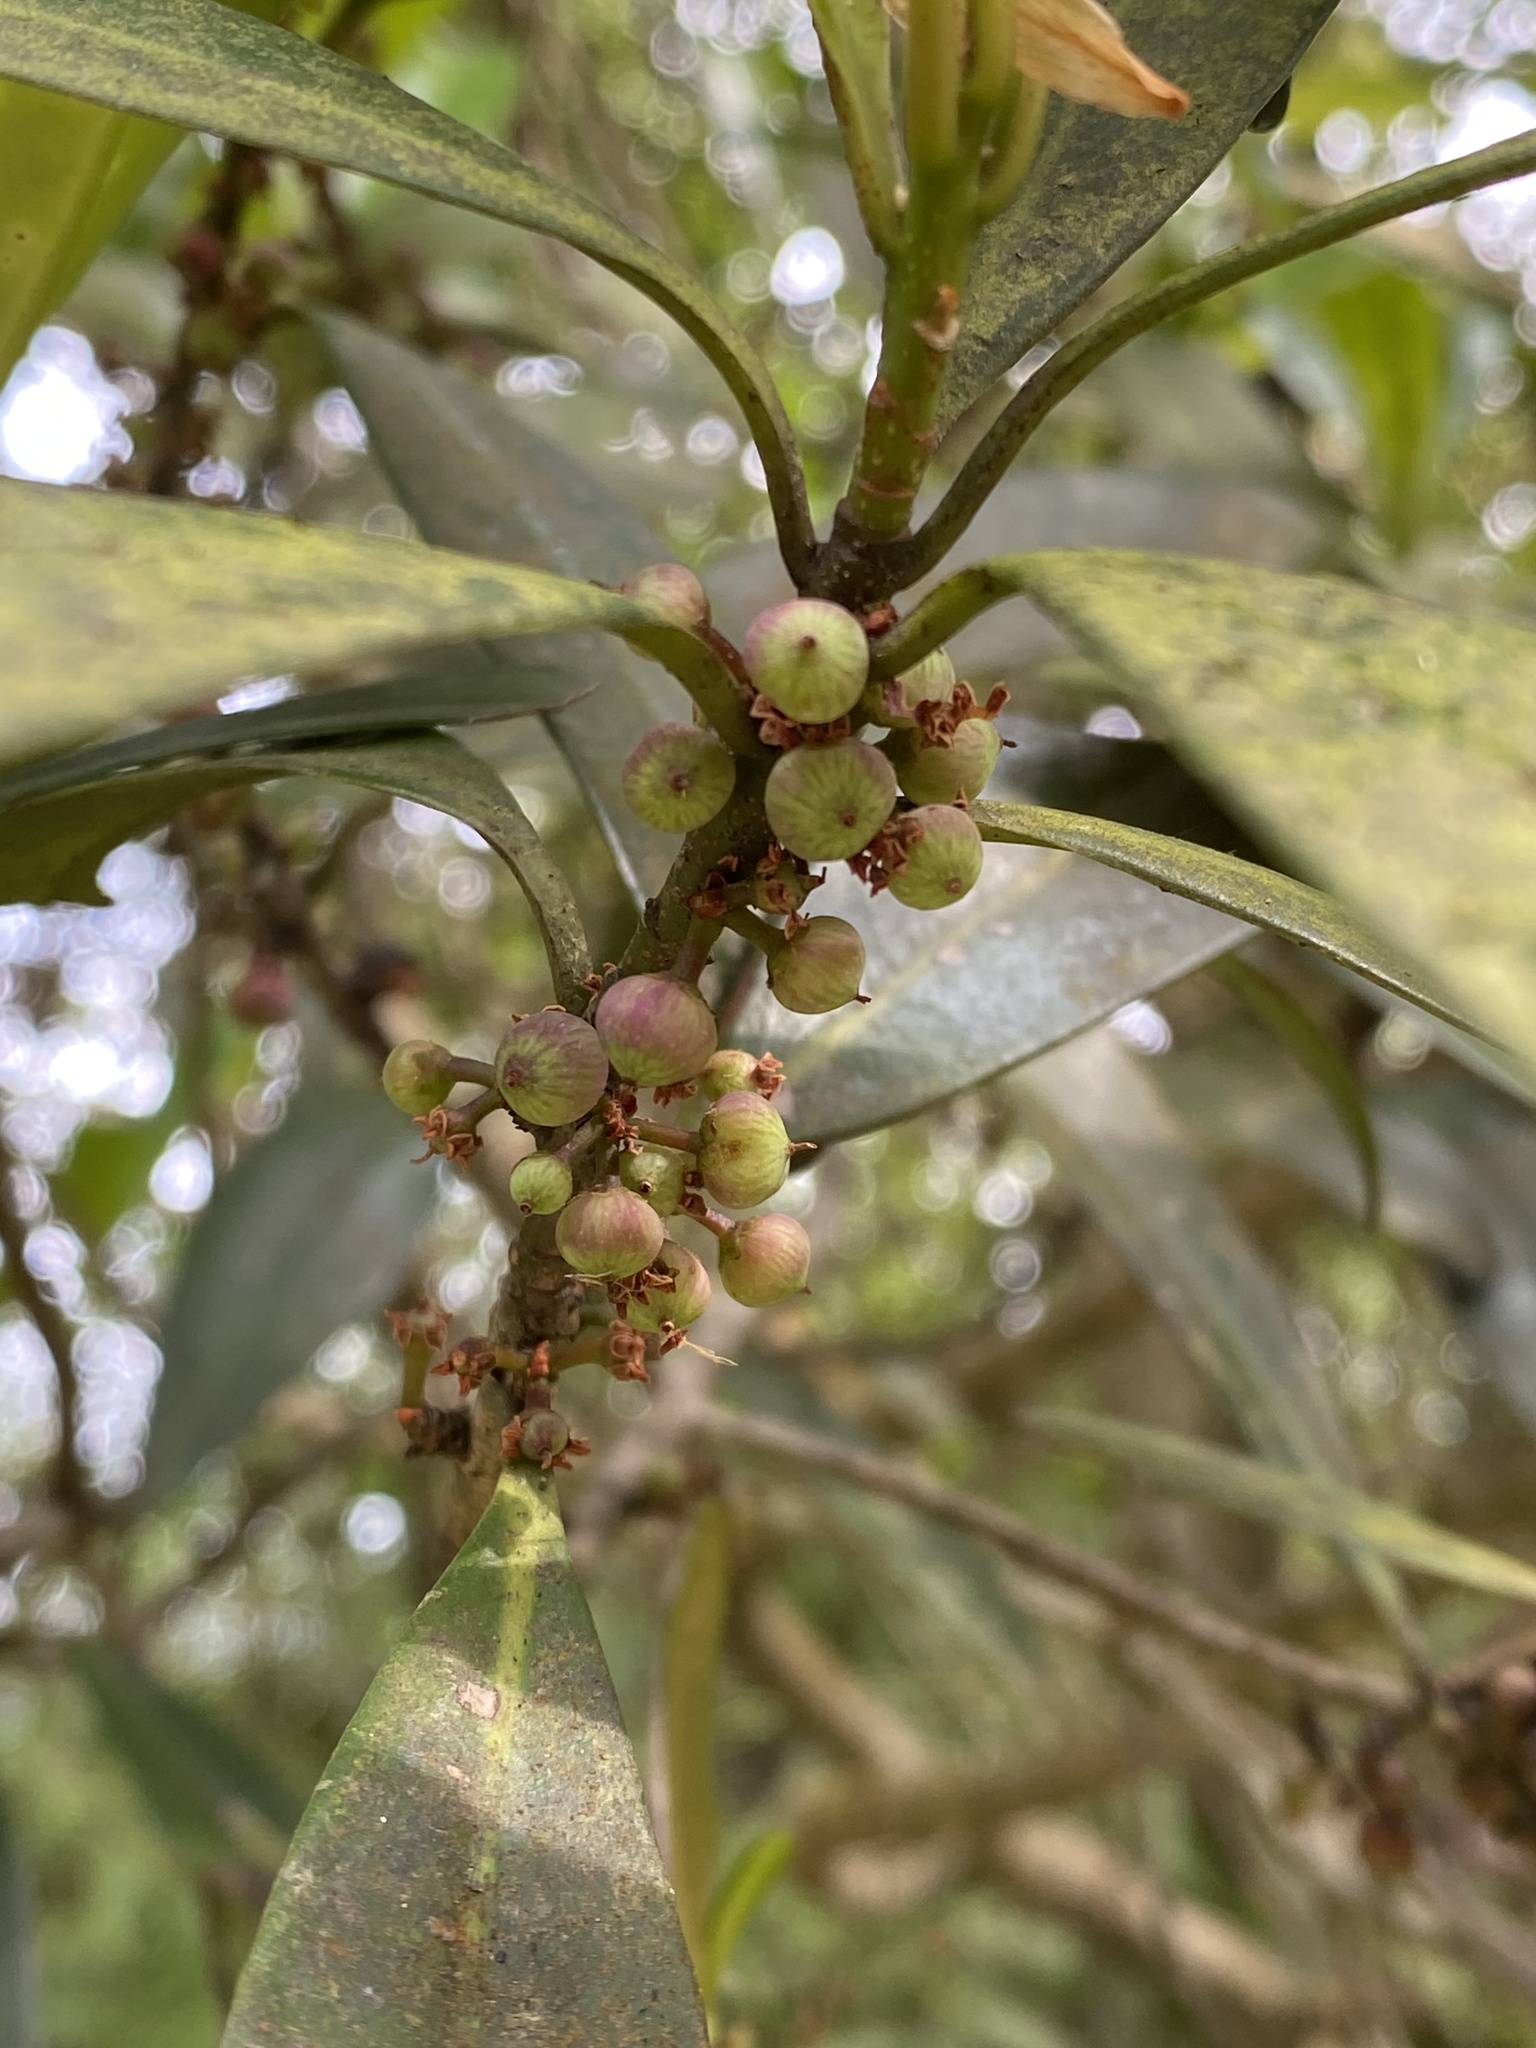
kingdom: Plantae
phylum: Tracheophyta
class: Magnoliopsida
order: Ericales
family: Primulaceae
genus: Myrsine
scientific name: Myrsine seguinii
